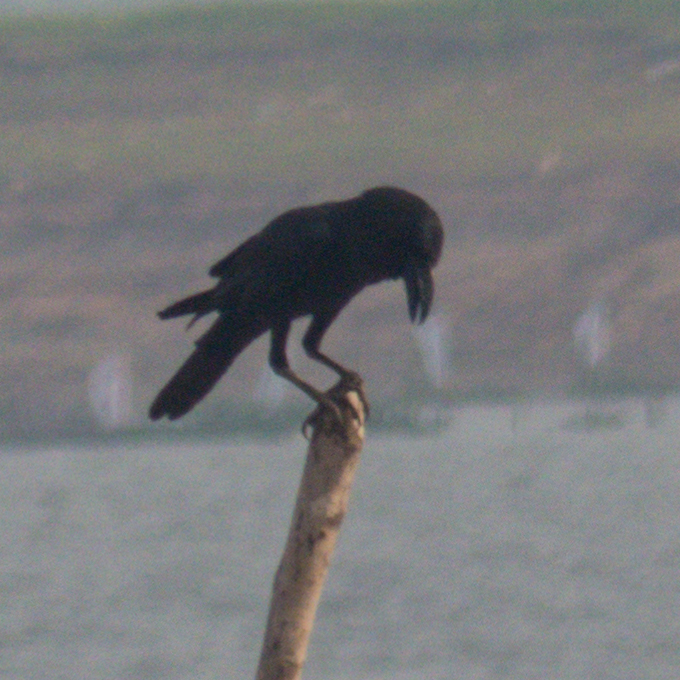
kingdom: Animalia
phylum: Chordata
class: Aves
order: Passeriformes
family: Corvidae
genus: Corvus
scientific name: Corvus macrorhynchos
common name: Large-billed crow
